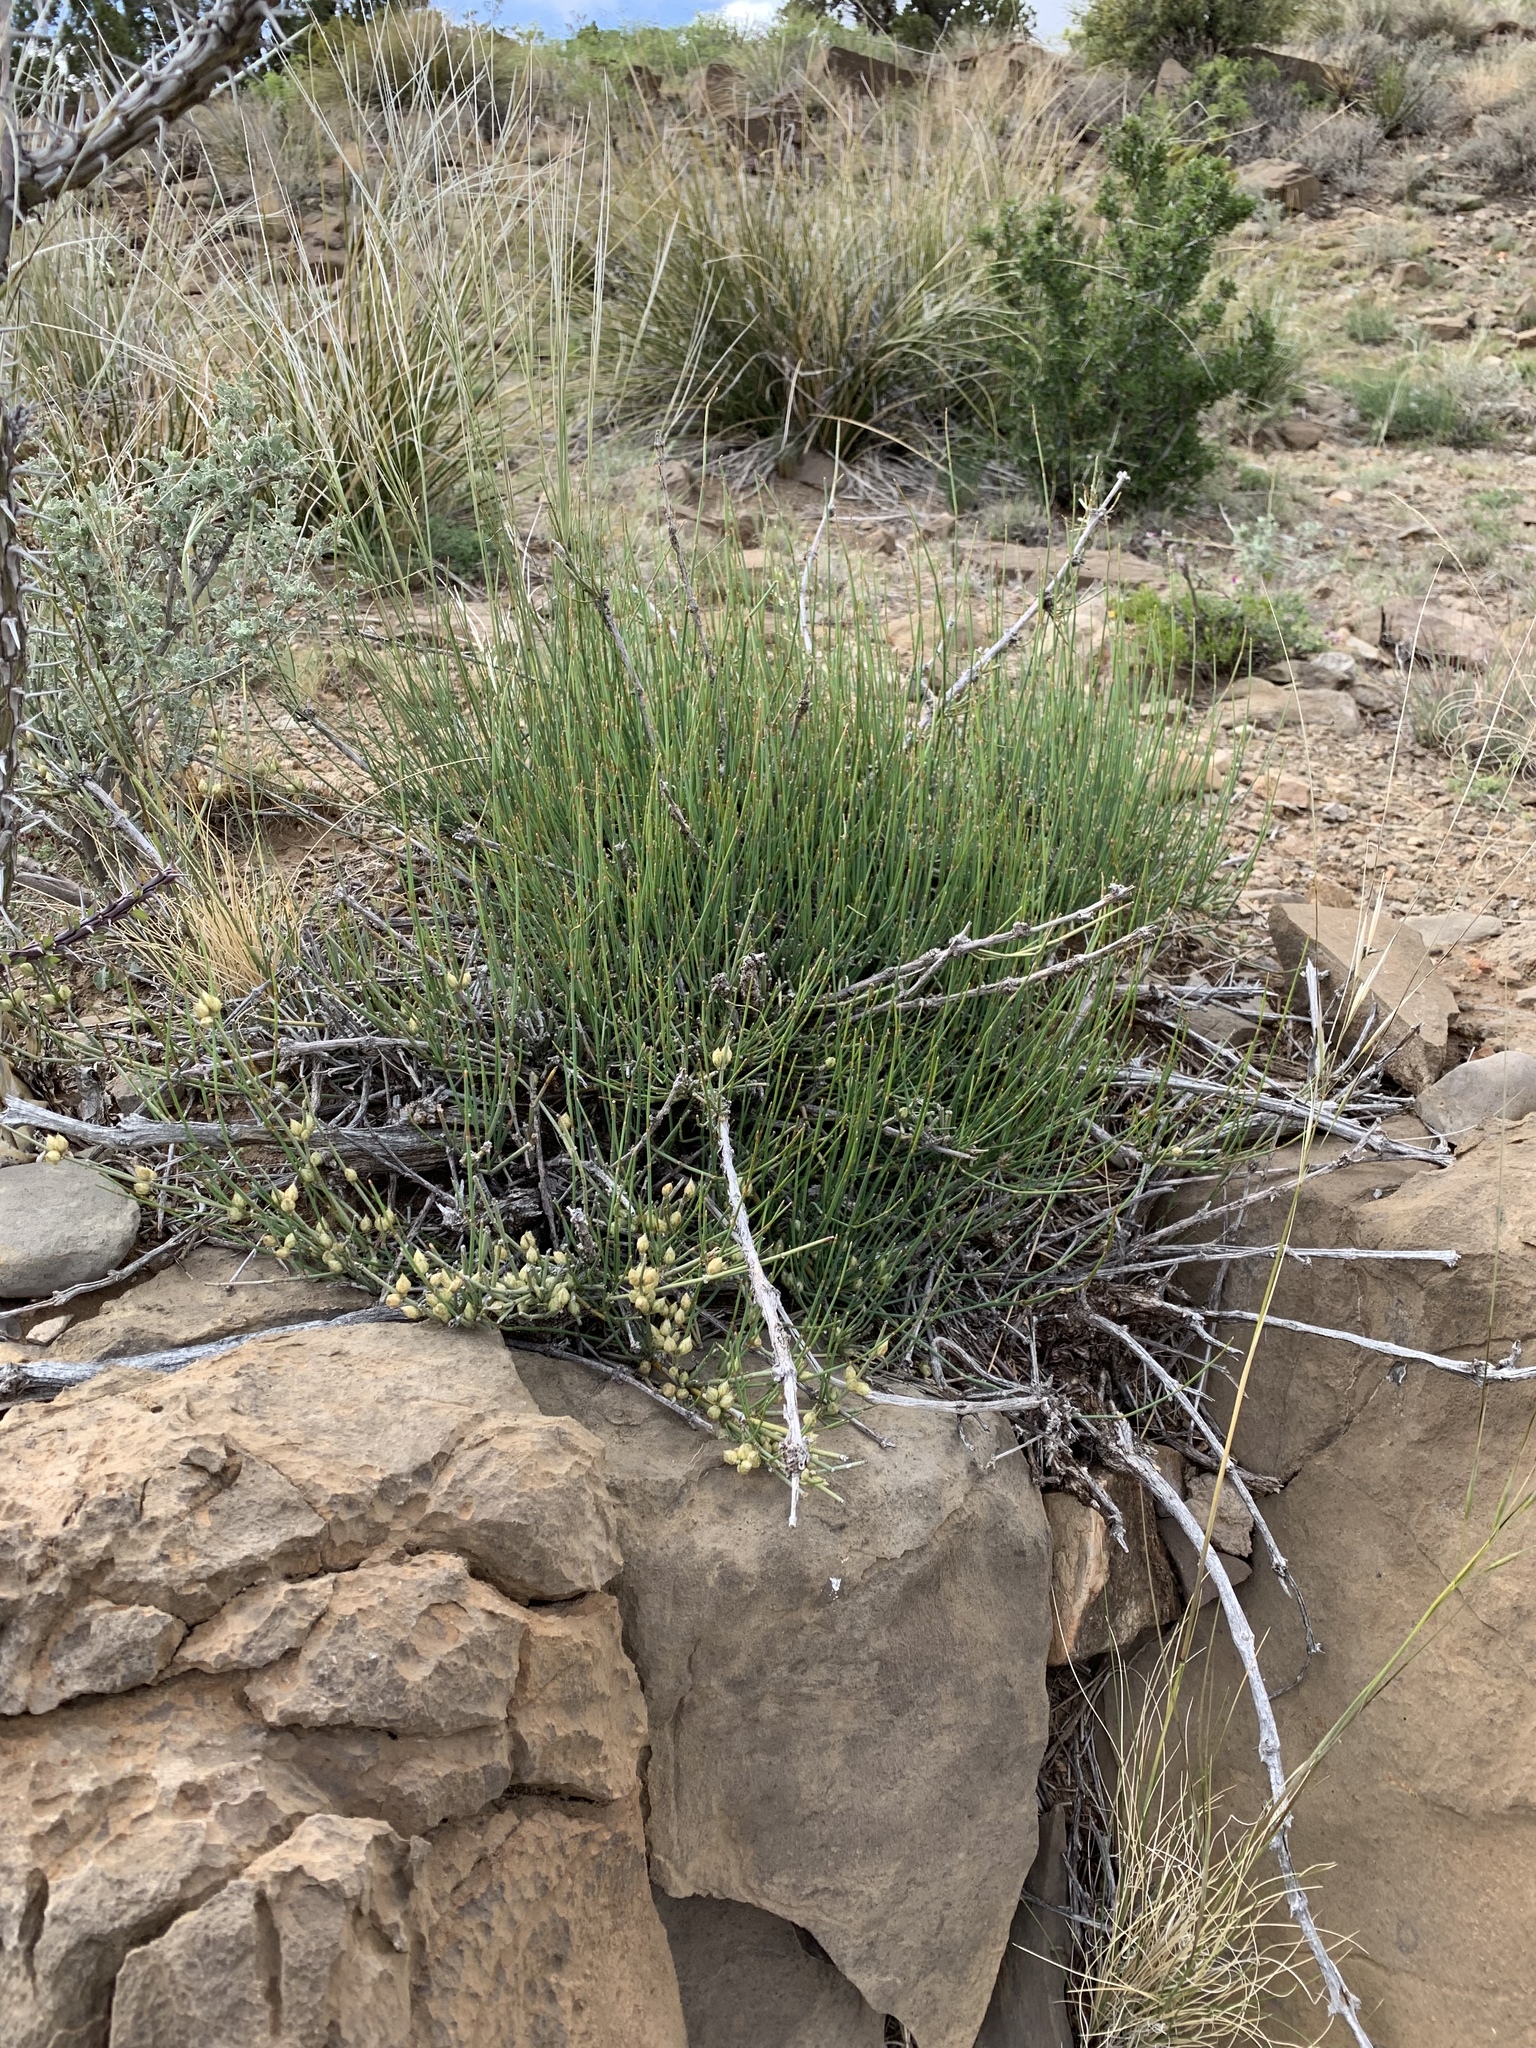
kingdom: Plantae
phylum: Tracheophyta
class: Gnetopsida
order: Ephedrales
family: Ephedraceae
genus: Ephedra
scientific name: Ephedra trifurca
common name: Mexican-tea
